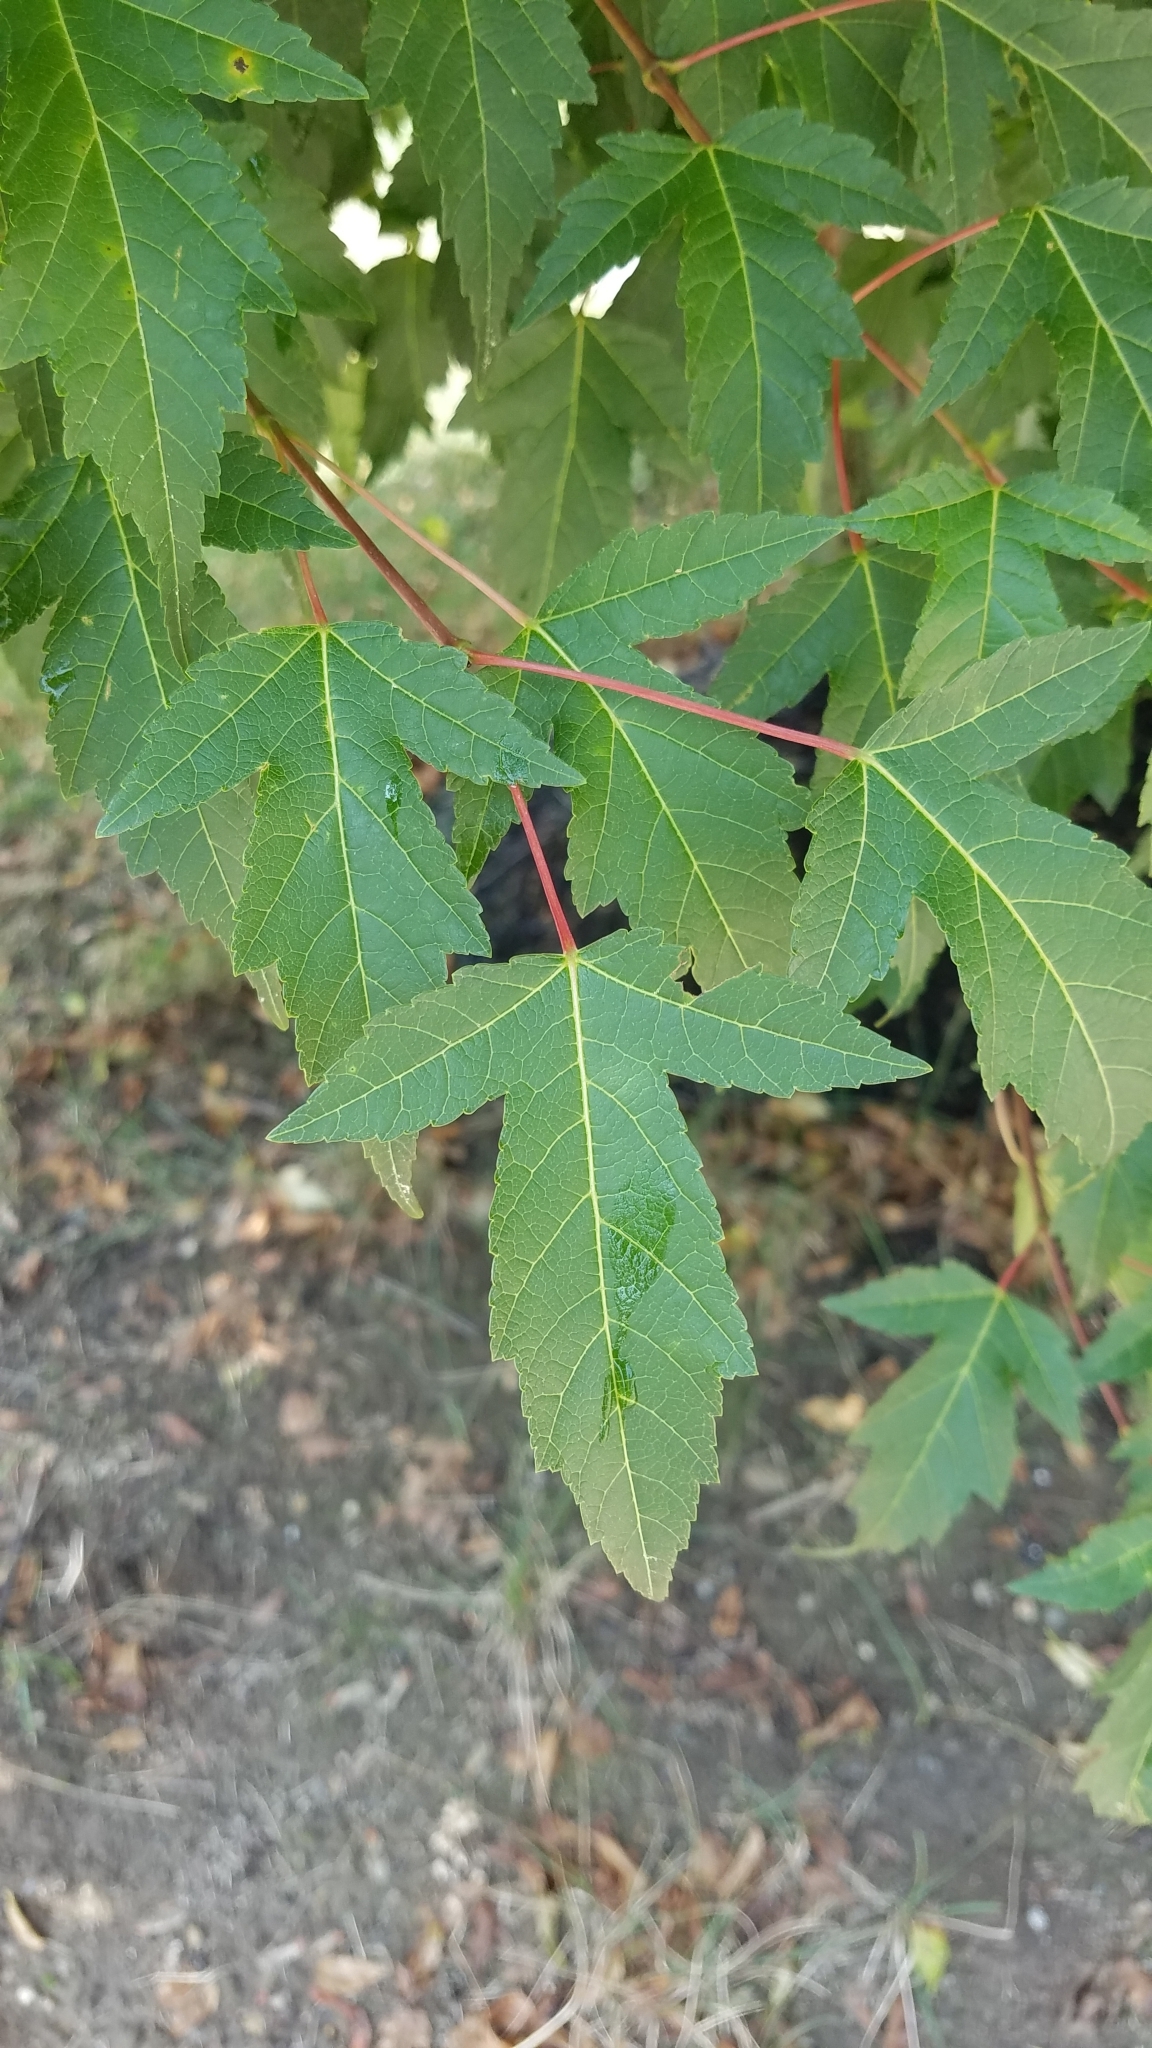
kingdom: Plantae
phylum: Tracheophyta
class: Magnoliopsida
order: Sapindales
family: Sapindaceae
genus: Acer
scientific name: Acer tataricum
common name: Tartar maple
